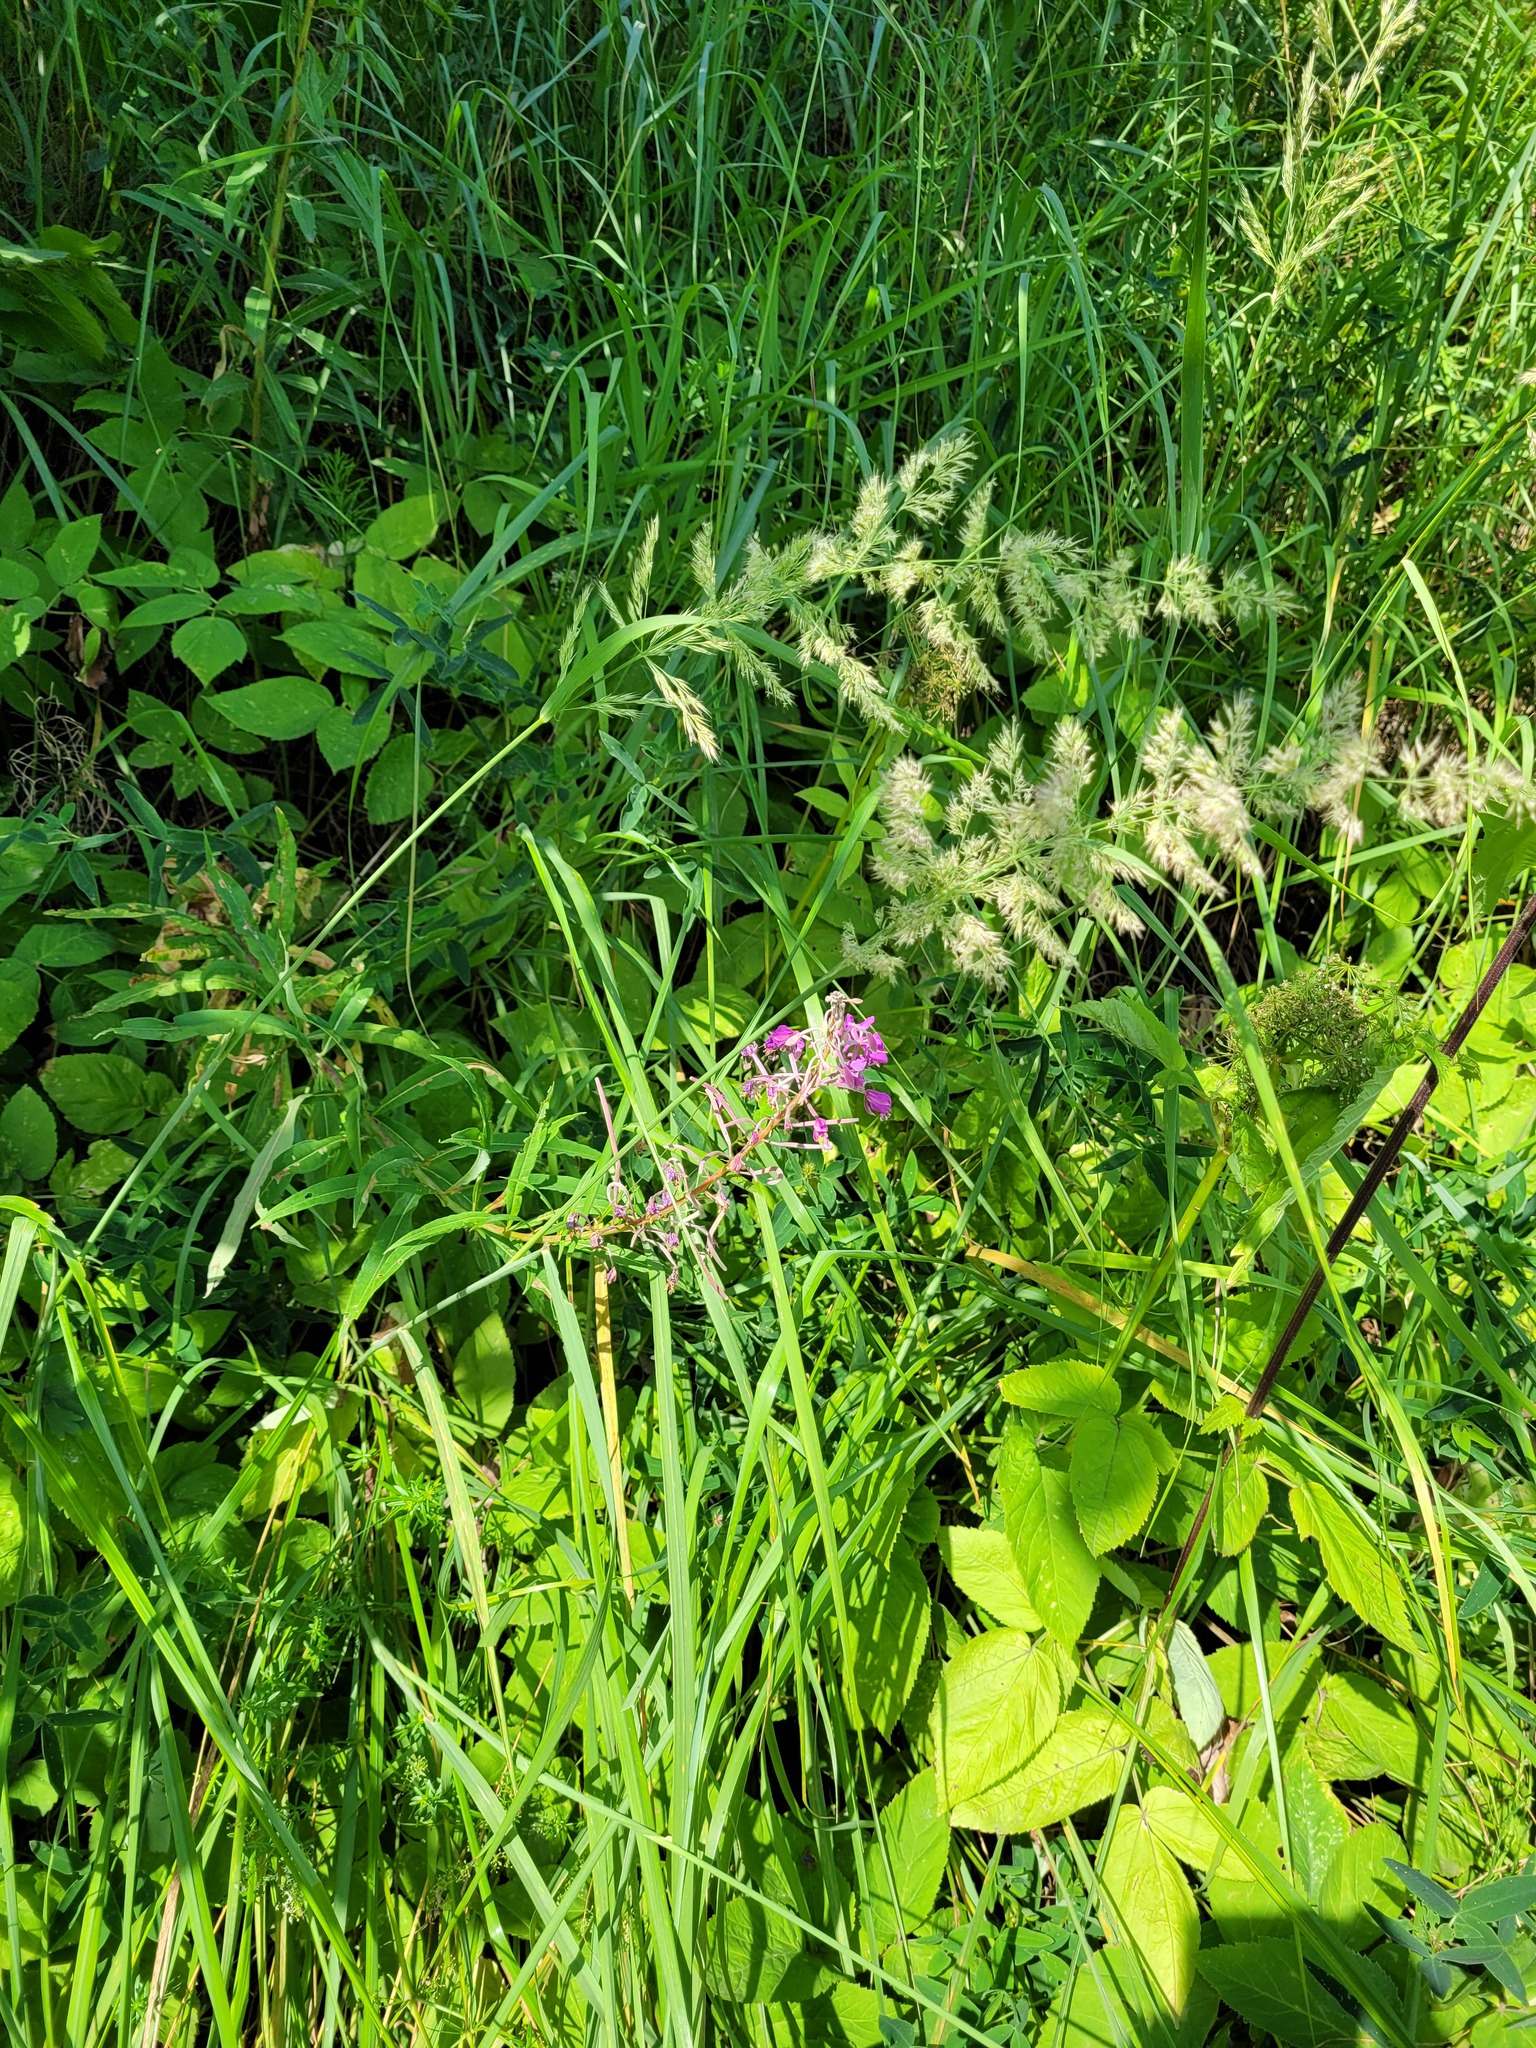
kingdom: Plantae
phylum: Tracheophyta
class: Magnoliopsida
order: Myrtales
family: Onagraceae
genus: Chamaenerion
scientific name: Chamaenerion angustifolium
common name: Fireweed
